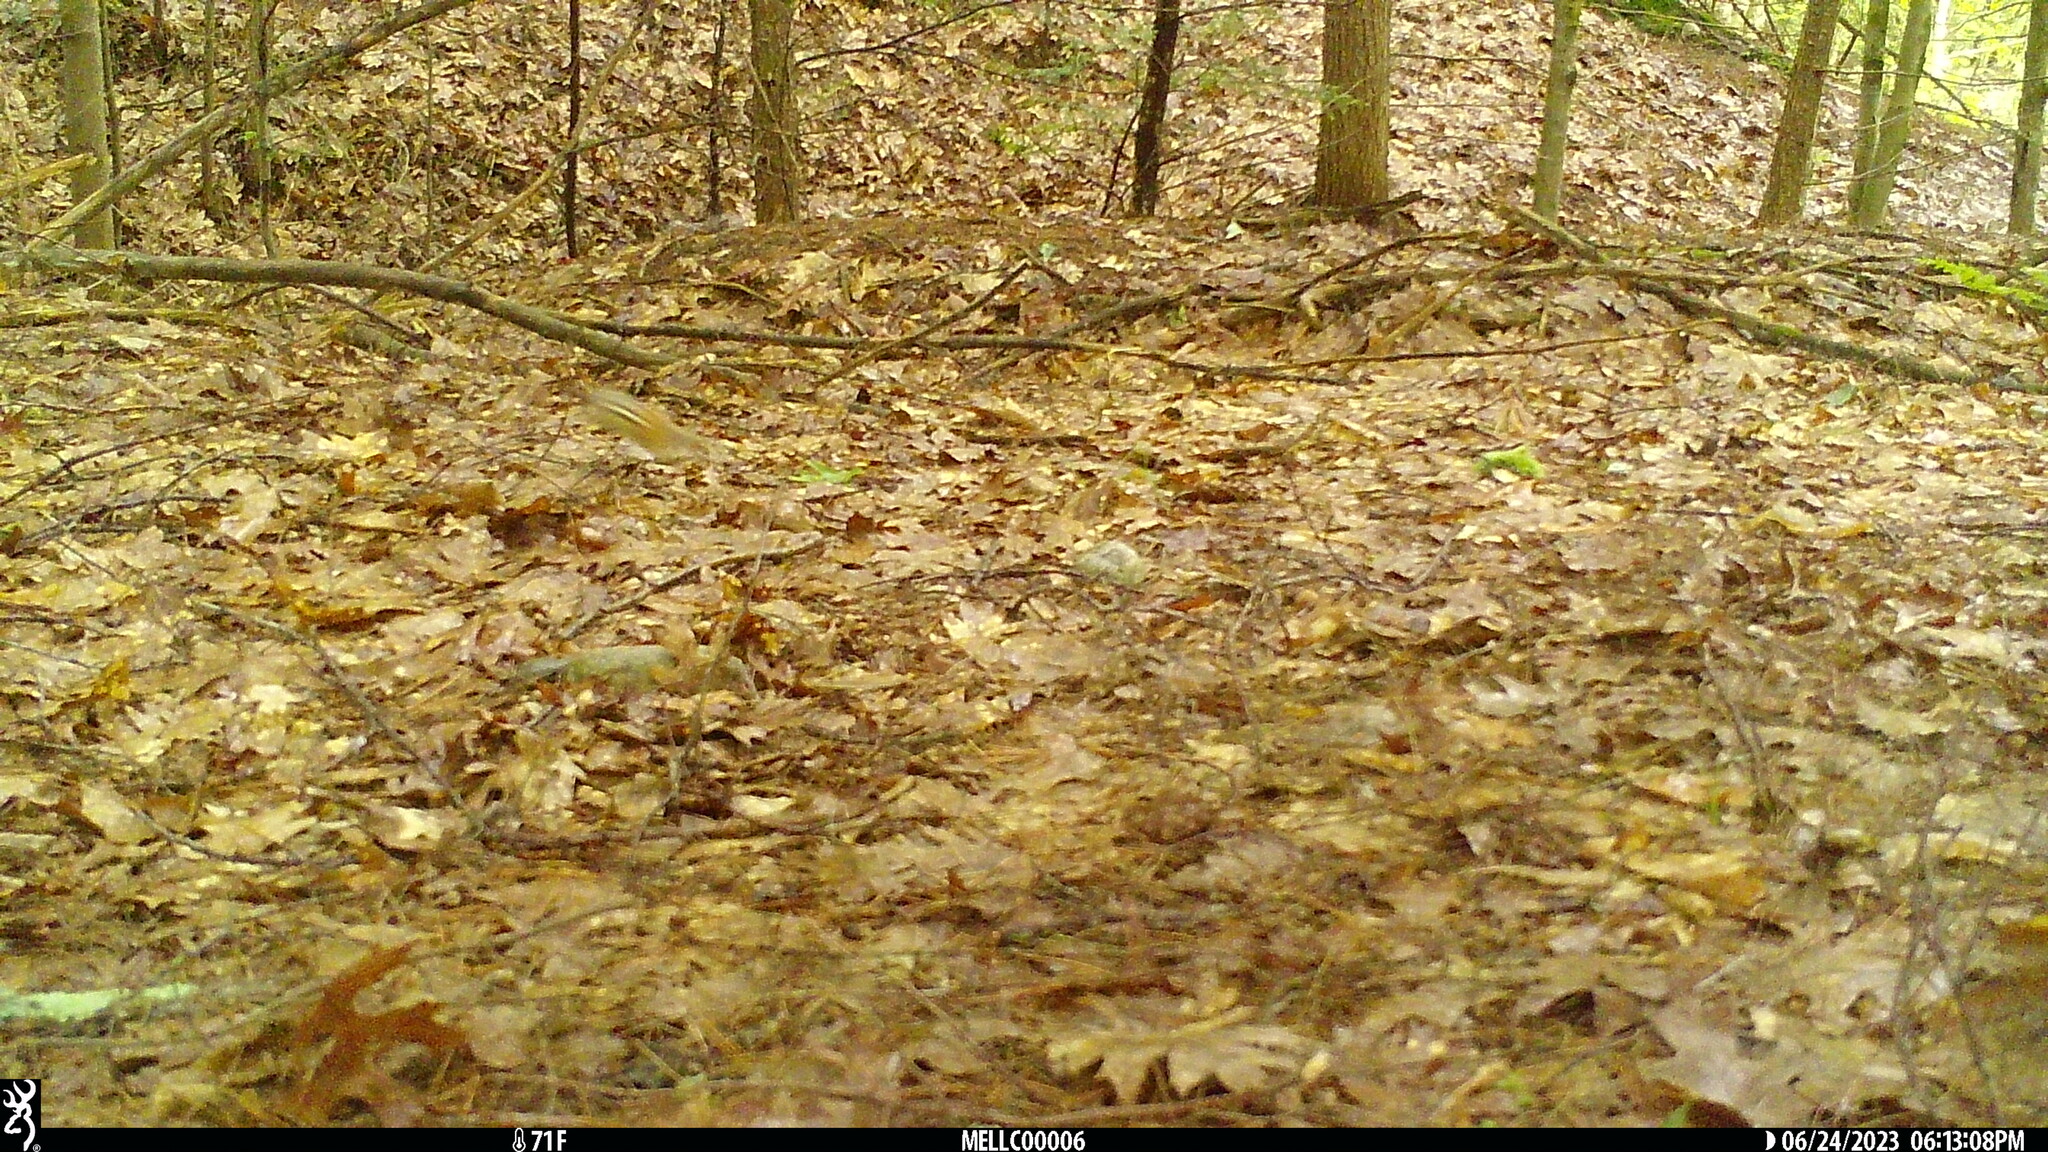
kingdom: Animalia
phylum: Chordata
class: Mammalia
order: Rodentia
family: Sciuridae
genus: Tamias
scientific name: Tamias striatus
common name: Eastern chipmunk
